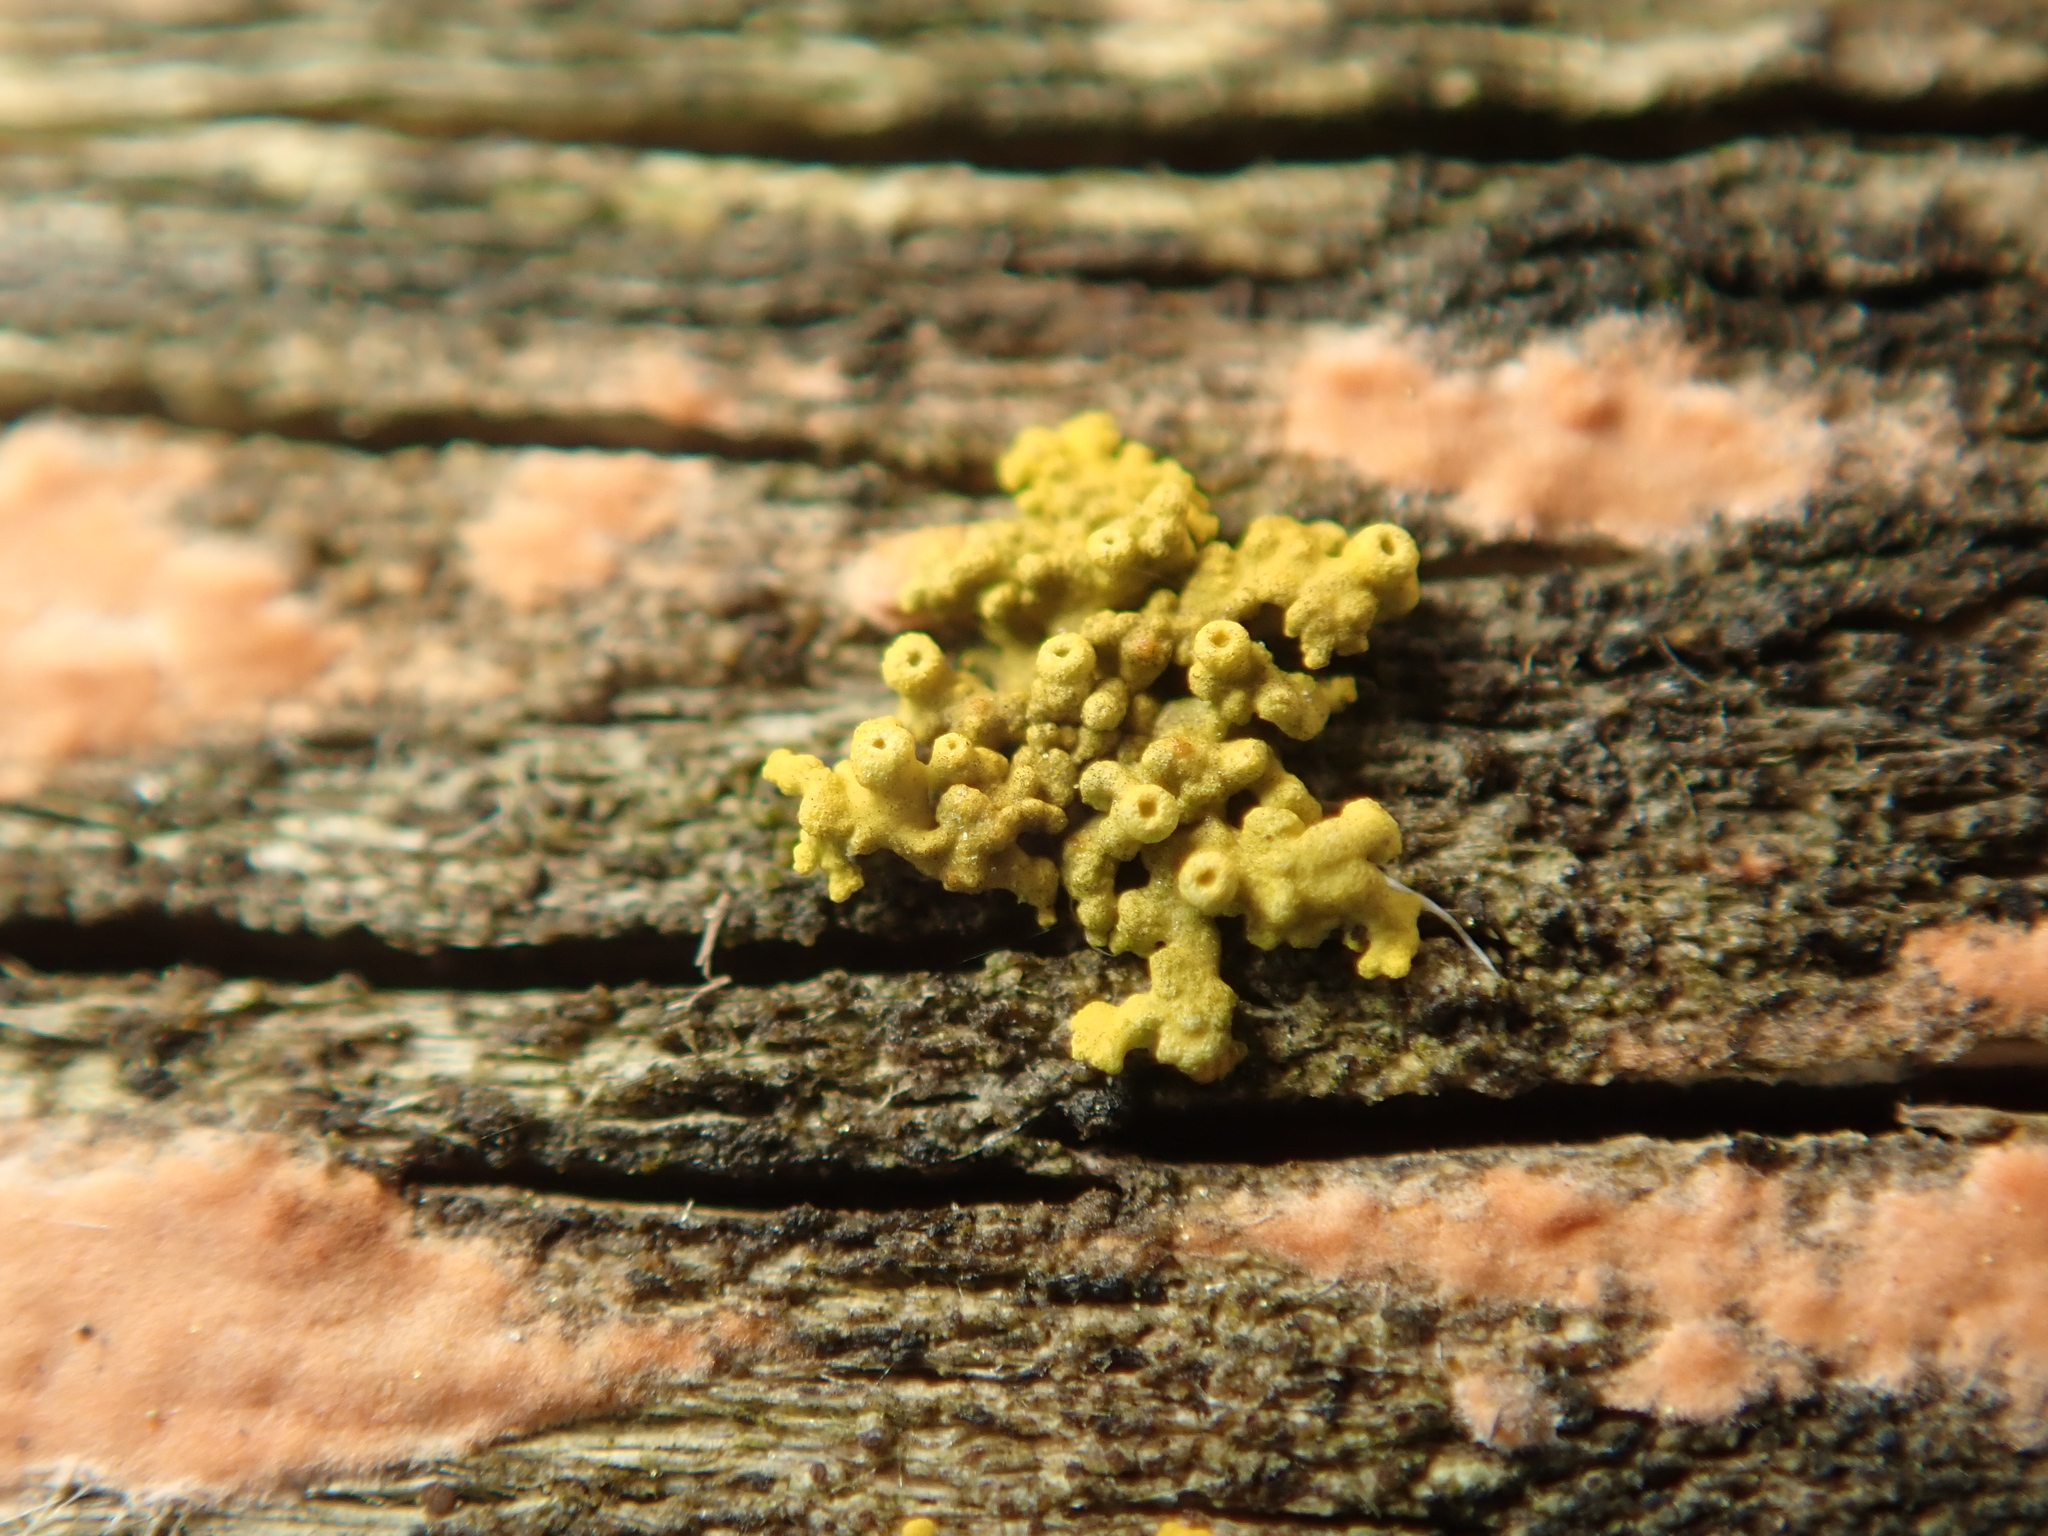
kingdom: Fungi
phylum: Ascomycota
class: Lecanoromycetes
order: Teloschistales
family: Teloschistaceae
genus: Polycauliona
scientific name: Polycauliona polycarpa
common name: Pin-cushion sunburst lichen
